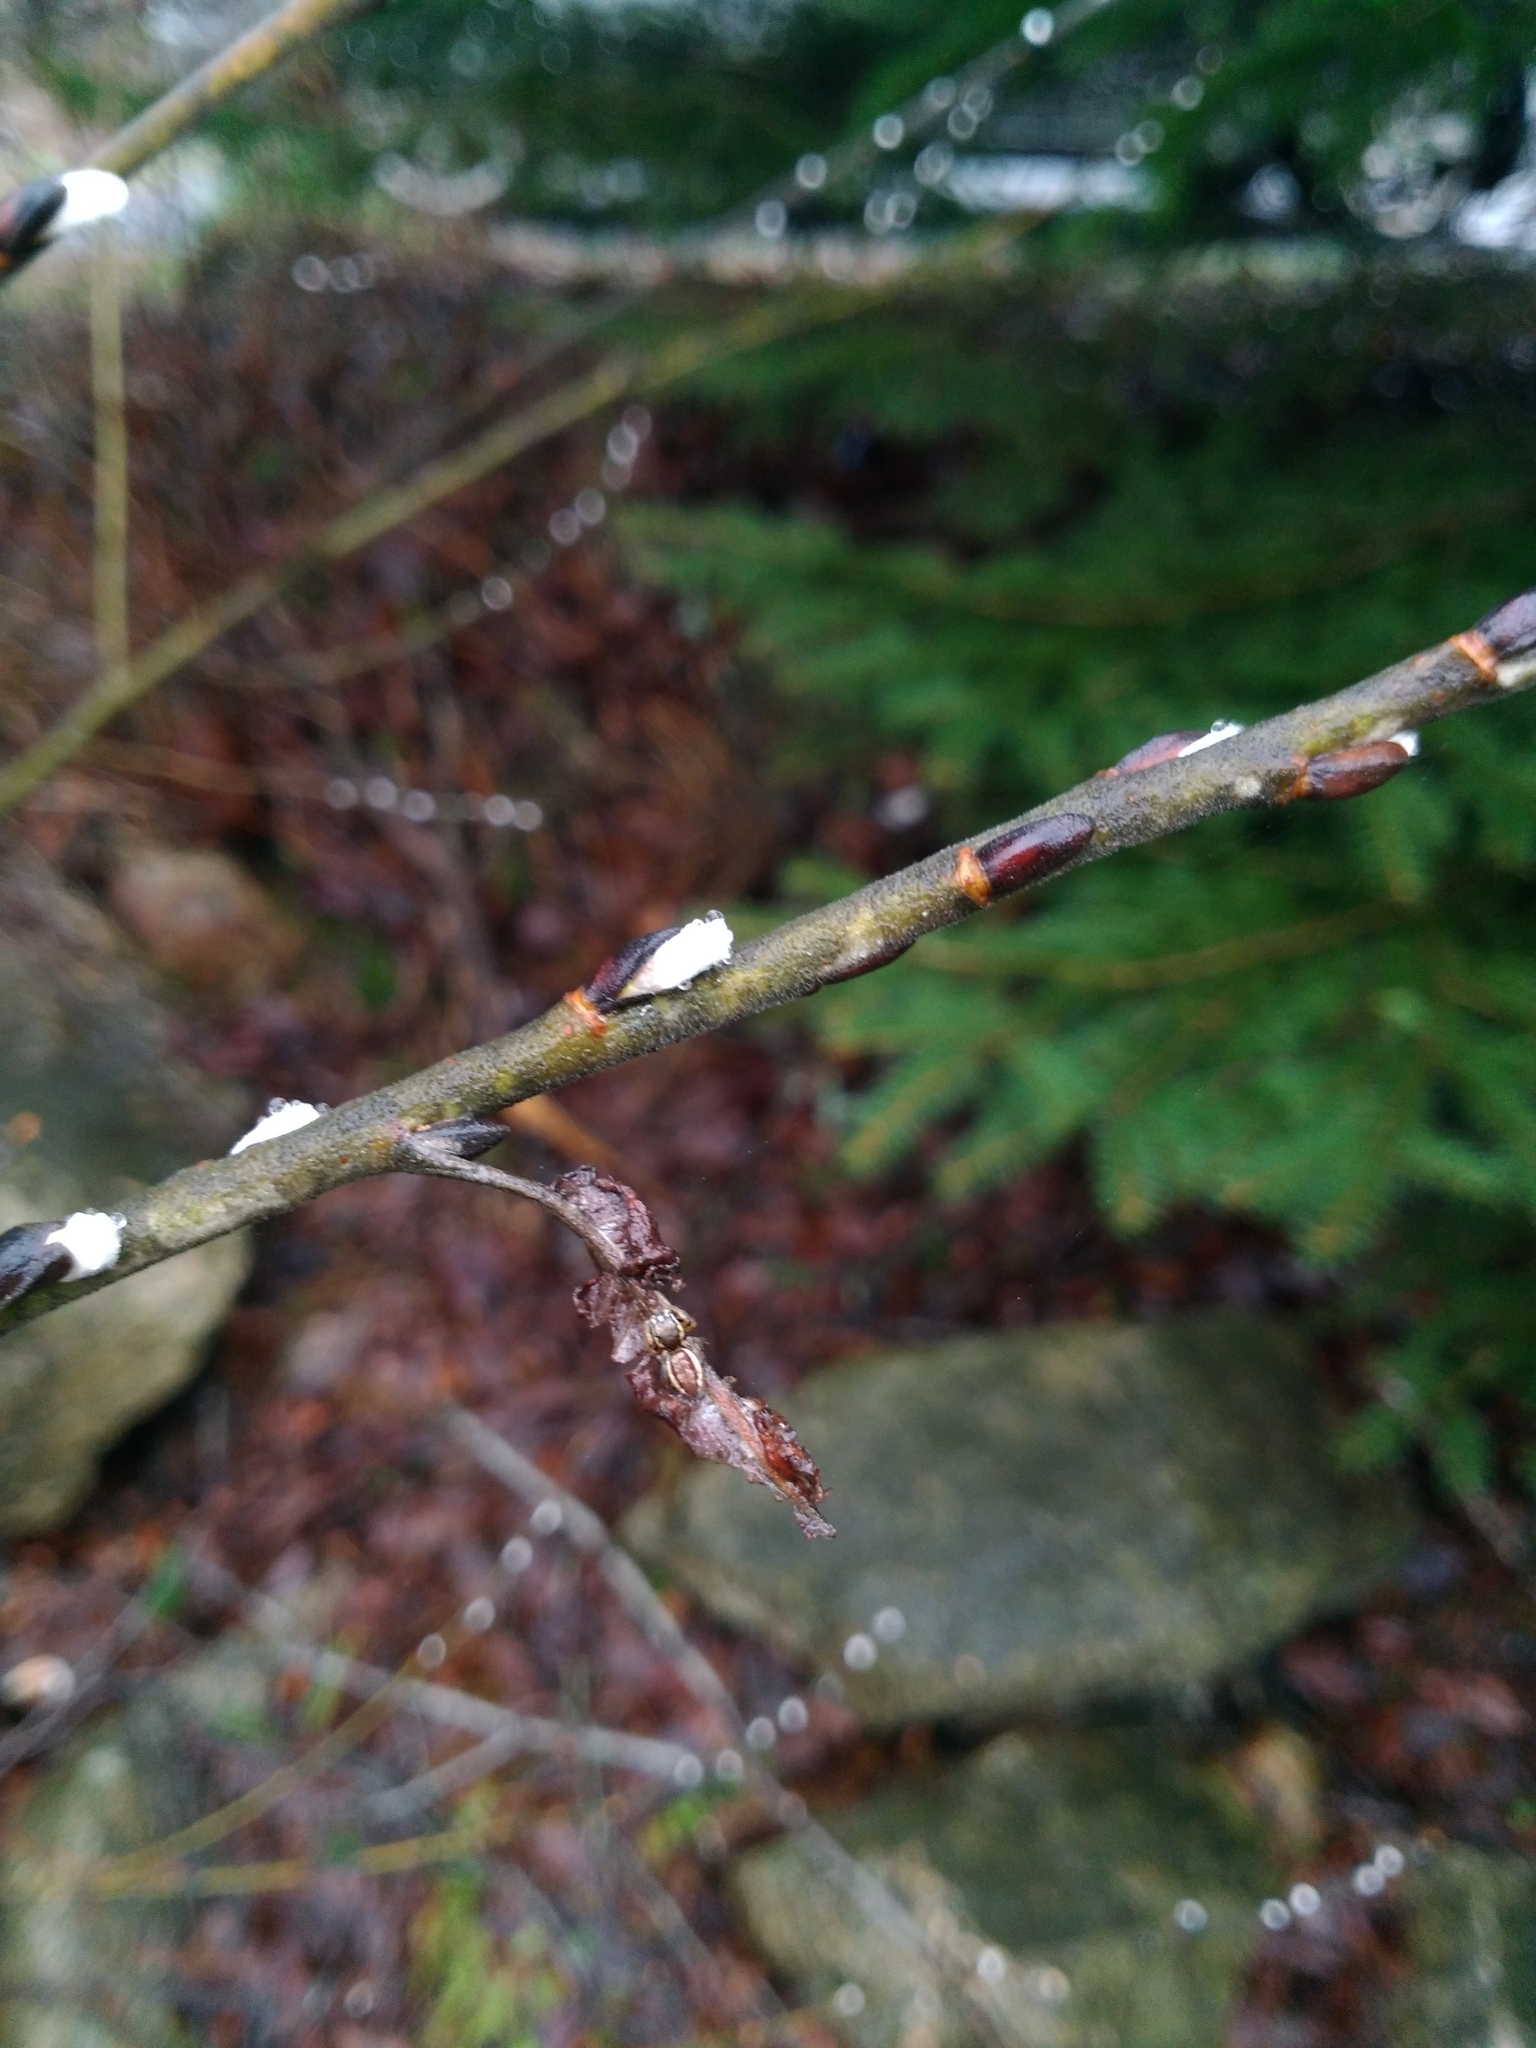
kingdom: Animalia
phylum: Arthropoda
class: Arachnida
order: Araneae
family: Salticidae
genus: Pelegrina
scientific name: Pelegrina flavipes
